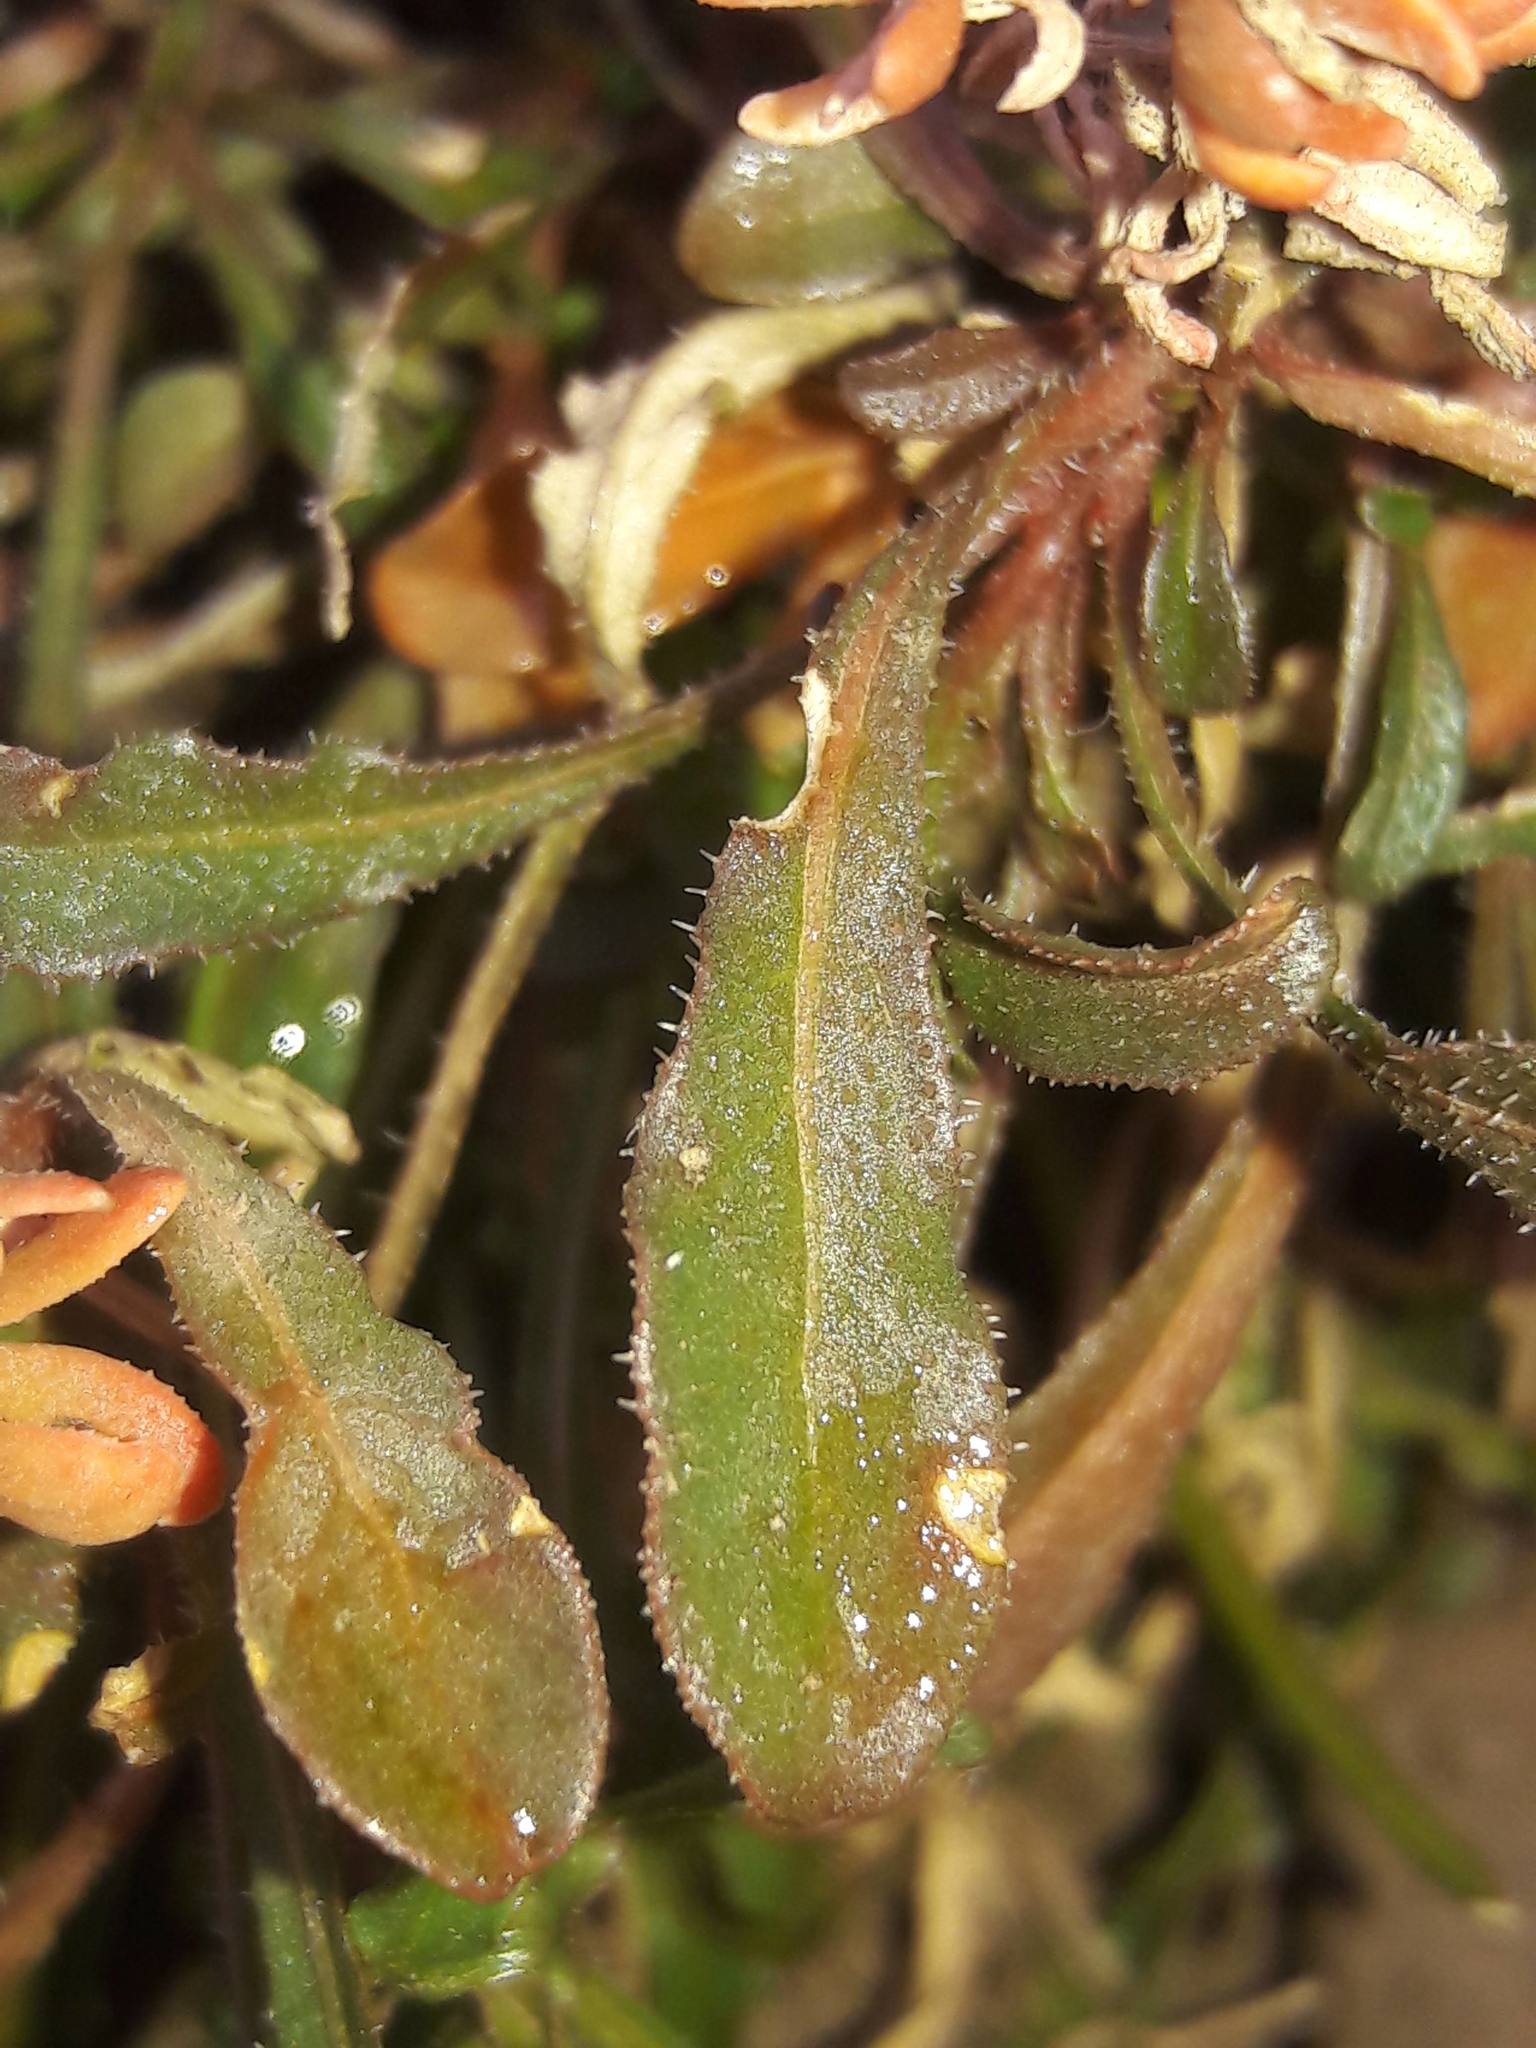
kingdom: Plantae
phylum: Tracheophyta
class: Magnoliopsida
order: Brassicales
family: Resedaceae
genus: Reseda
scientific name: Reseda phyteuma
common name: Corn mignonette
